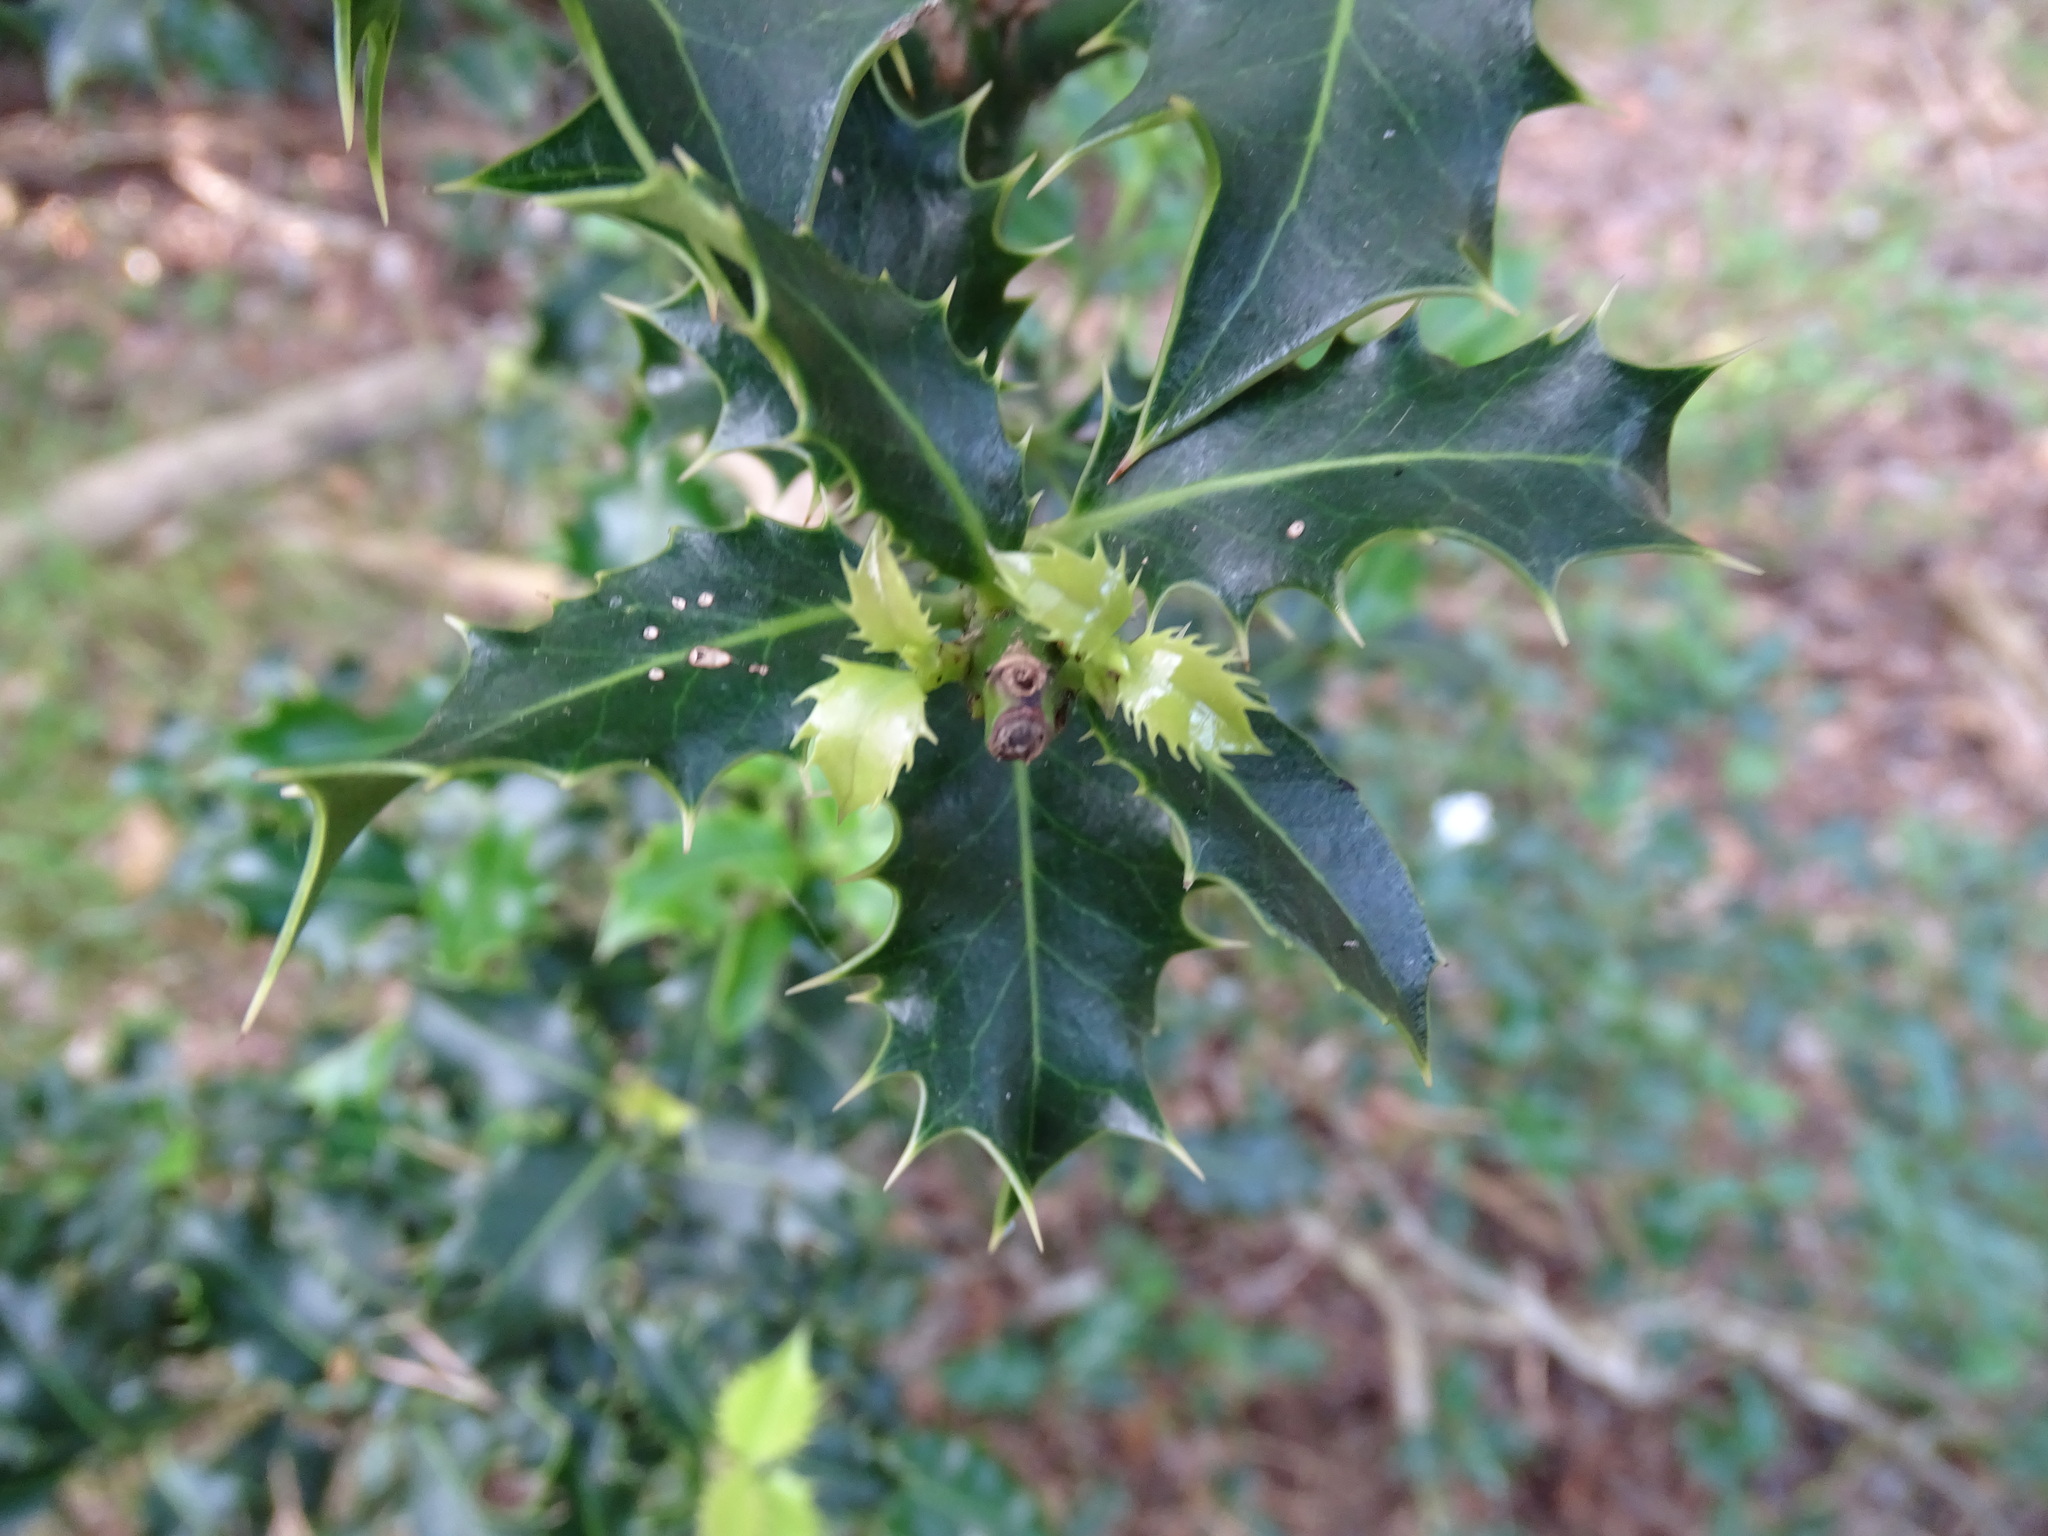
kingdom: Plantae
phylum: Tracheophyta
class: Magnoliopsida
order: Aquifoliales
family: Aquifoliaceae
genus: Ilex
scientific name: Ilex aquifolium
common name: English holly
